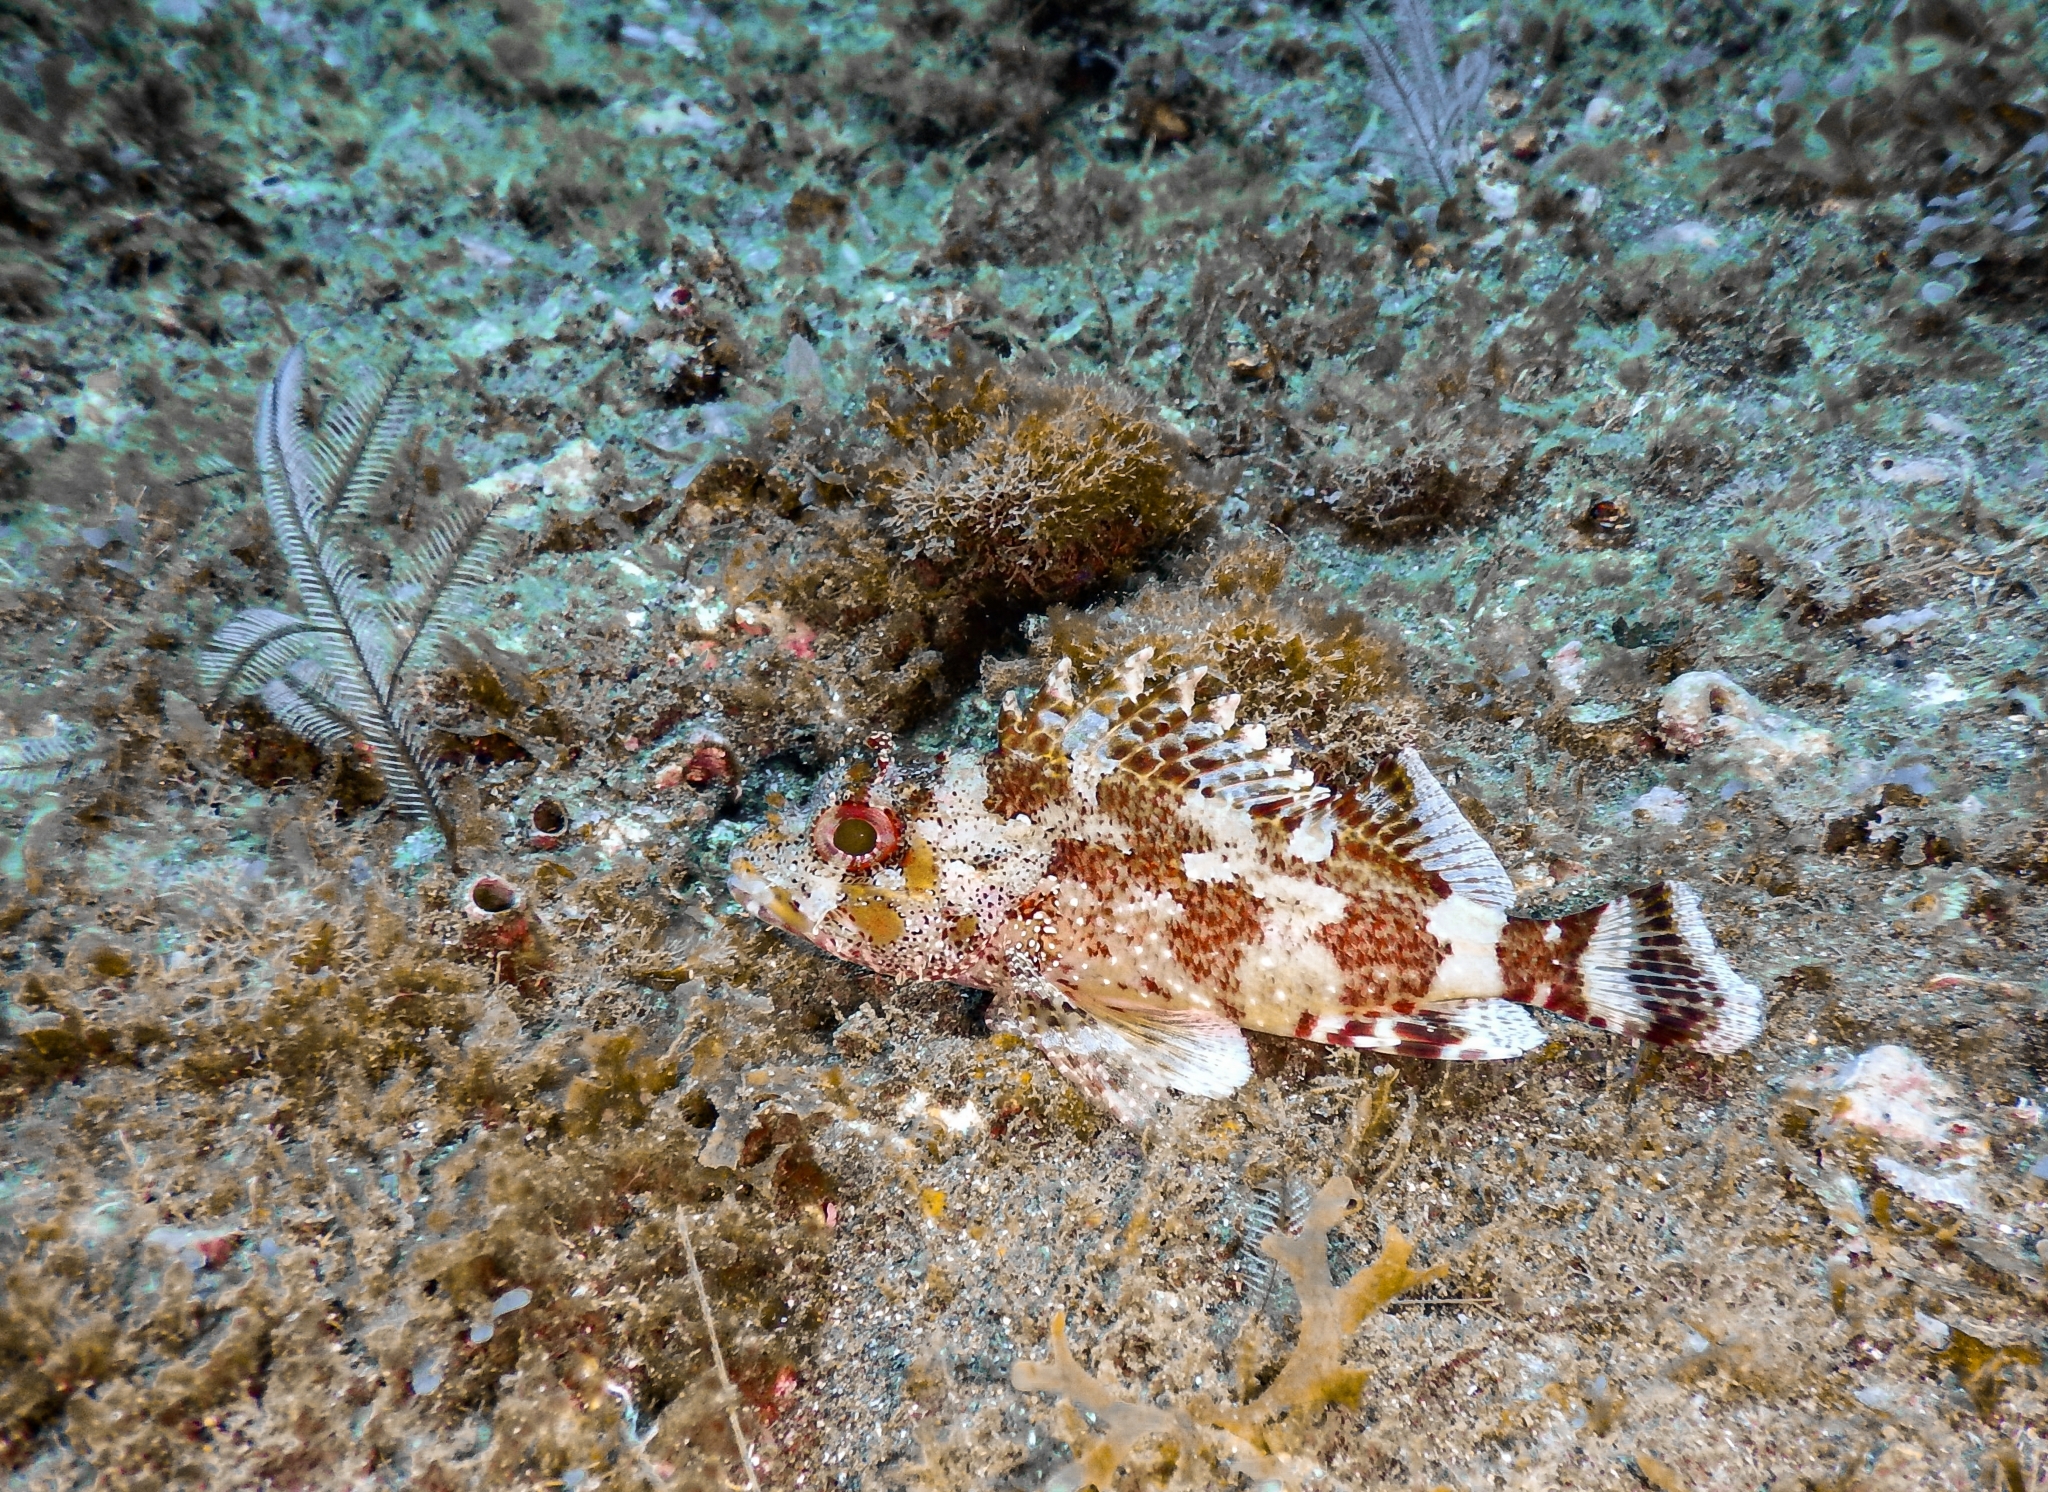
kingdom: Animalia
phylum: Chordata
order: Scorpaeniformes
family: Scorpaenidae
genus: Scorpaena
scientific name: Scorpaena maderensis
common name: Madeira rockfish
